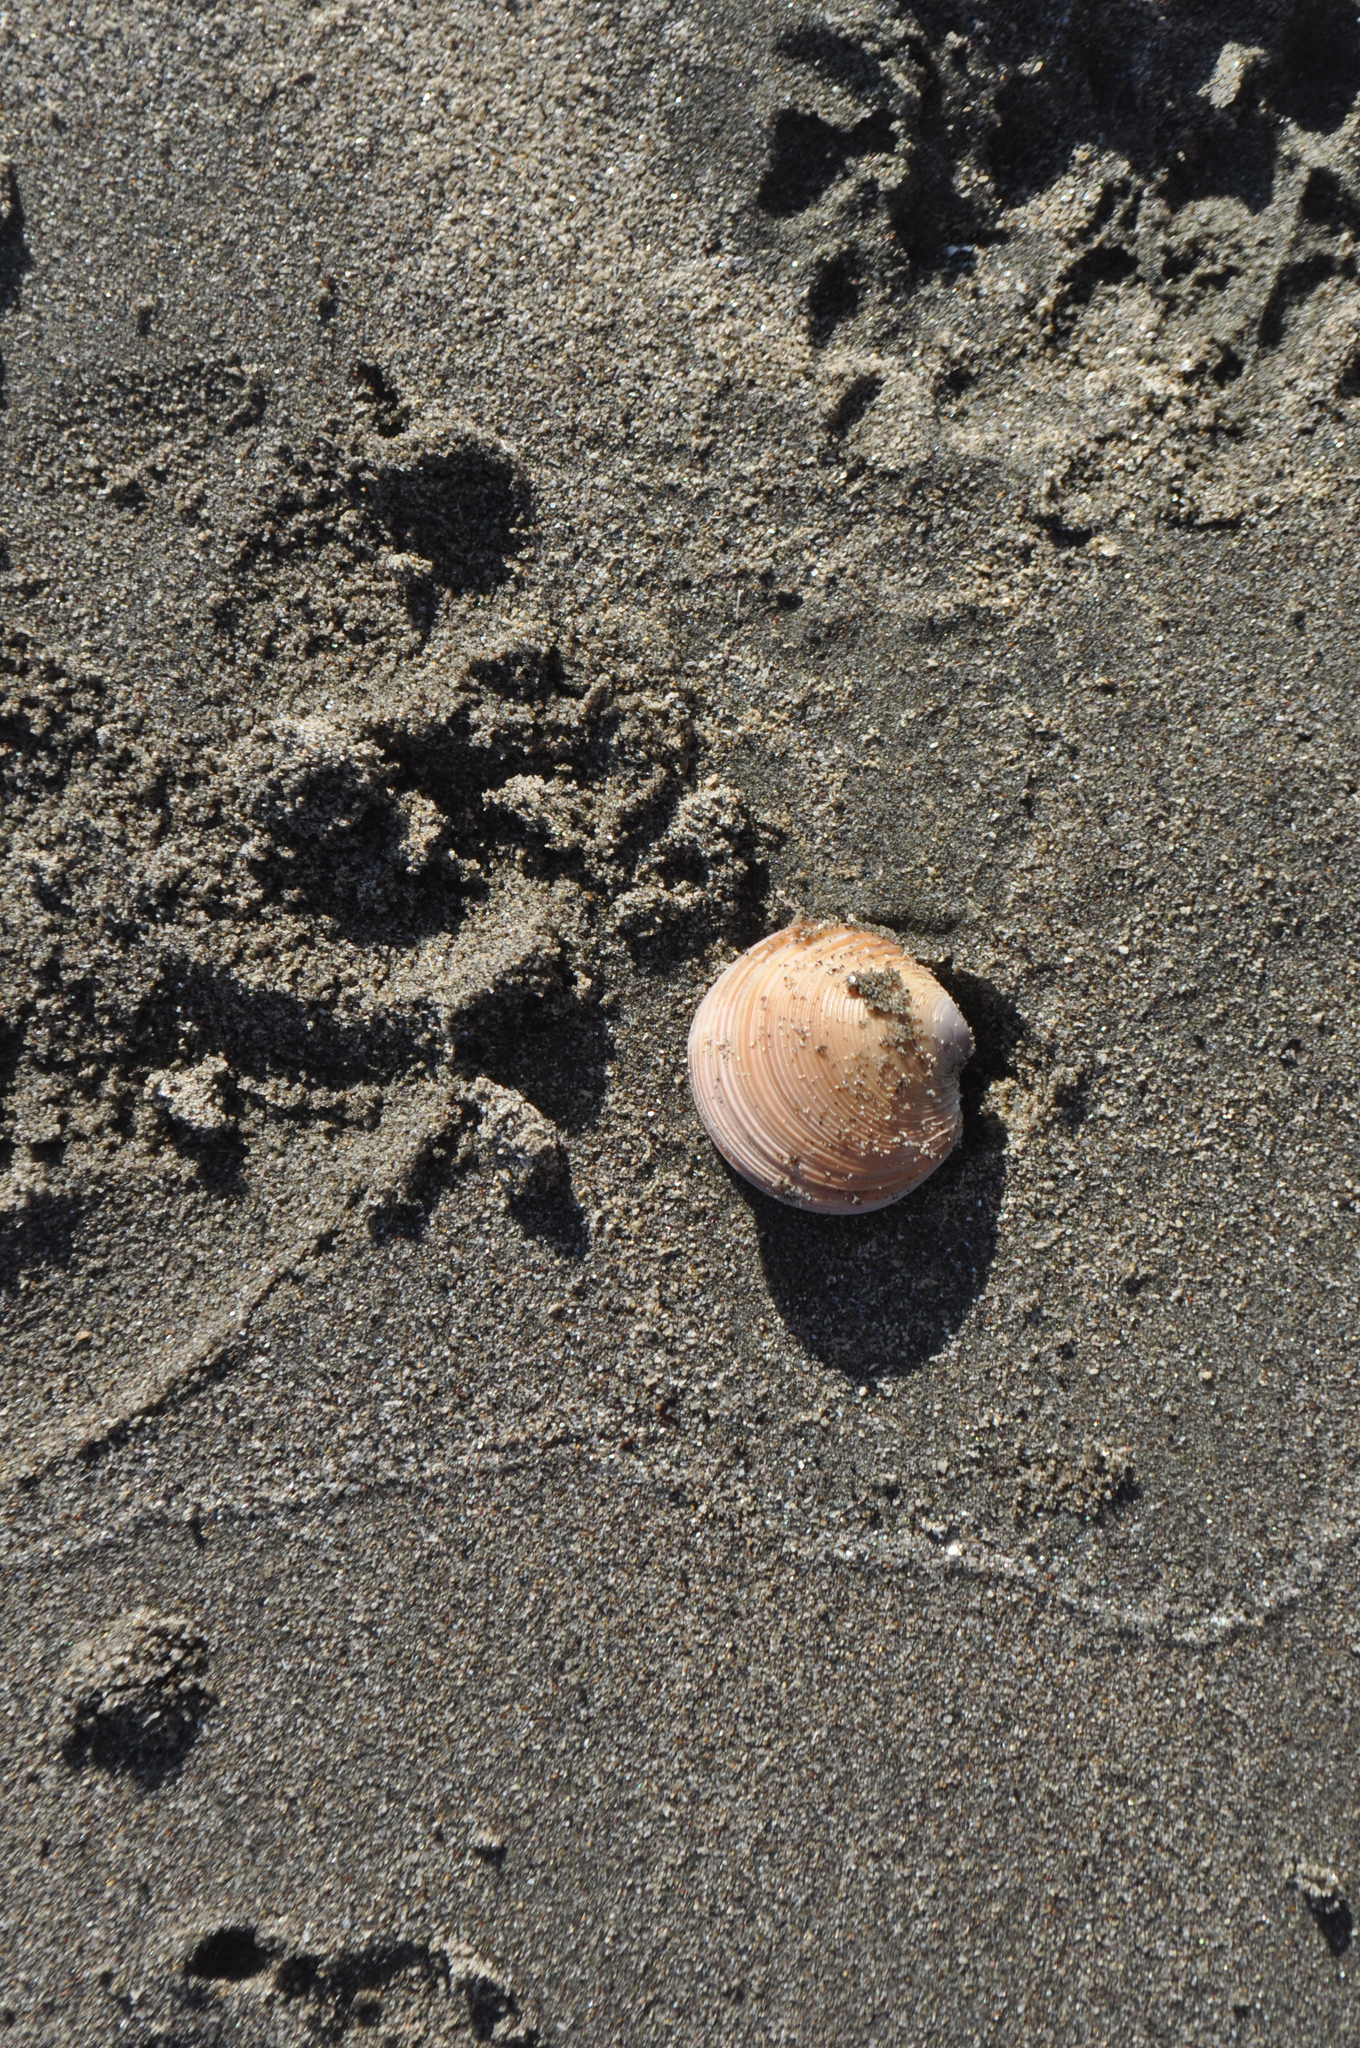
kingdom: Animalia
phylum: Mollusca
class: Bivalvia
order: Venerida
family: Veneridae
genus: Dosinia
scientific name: Dosinia anus
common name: Old-woman dosinia
